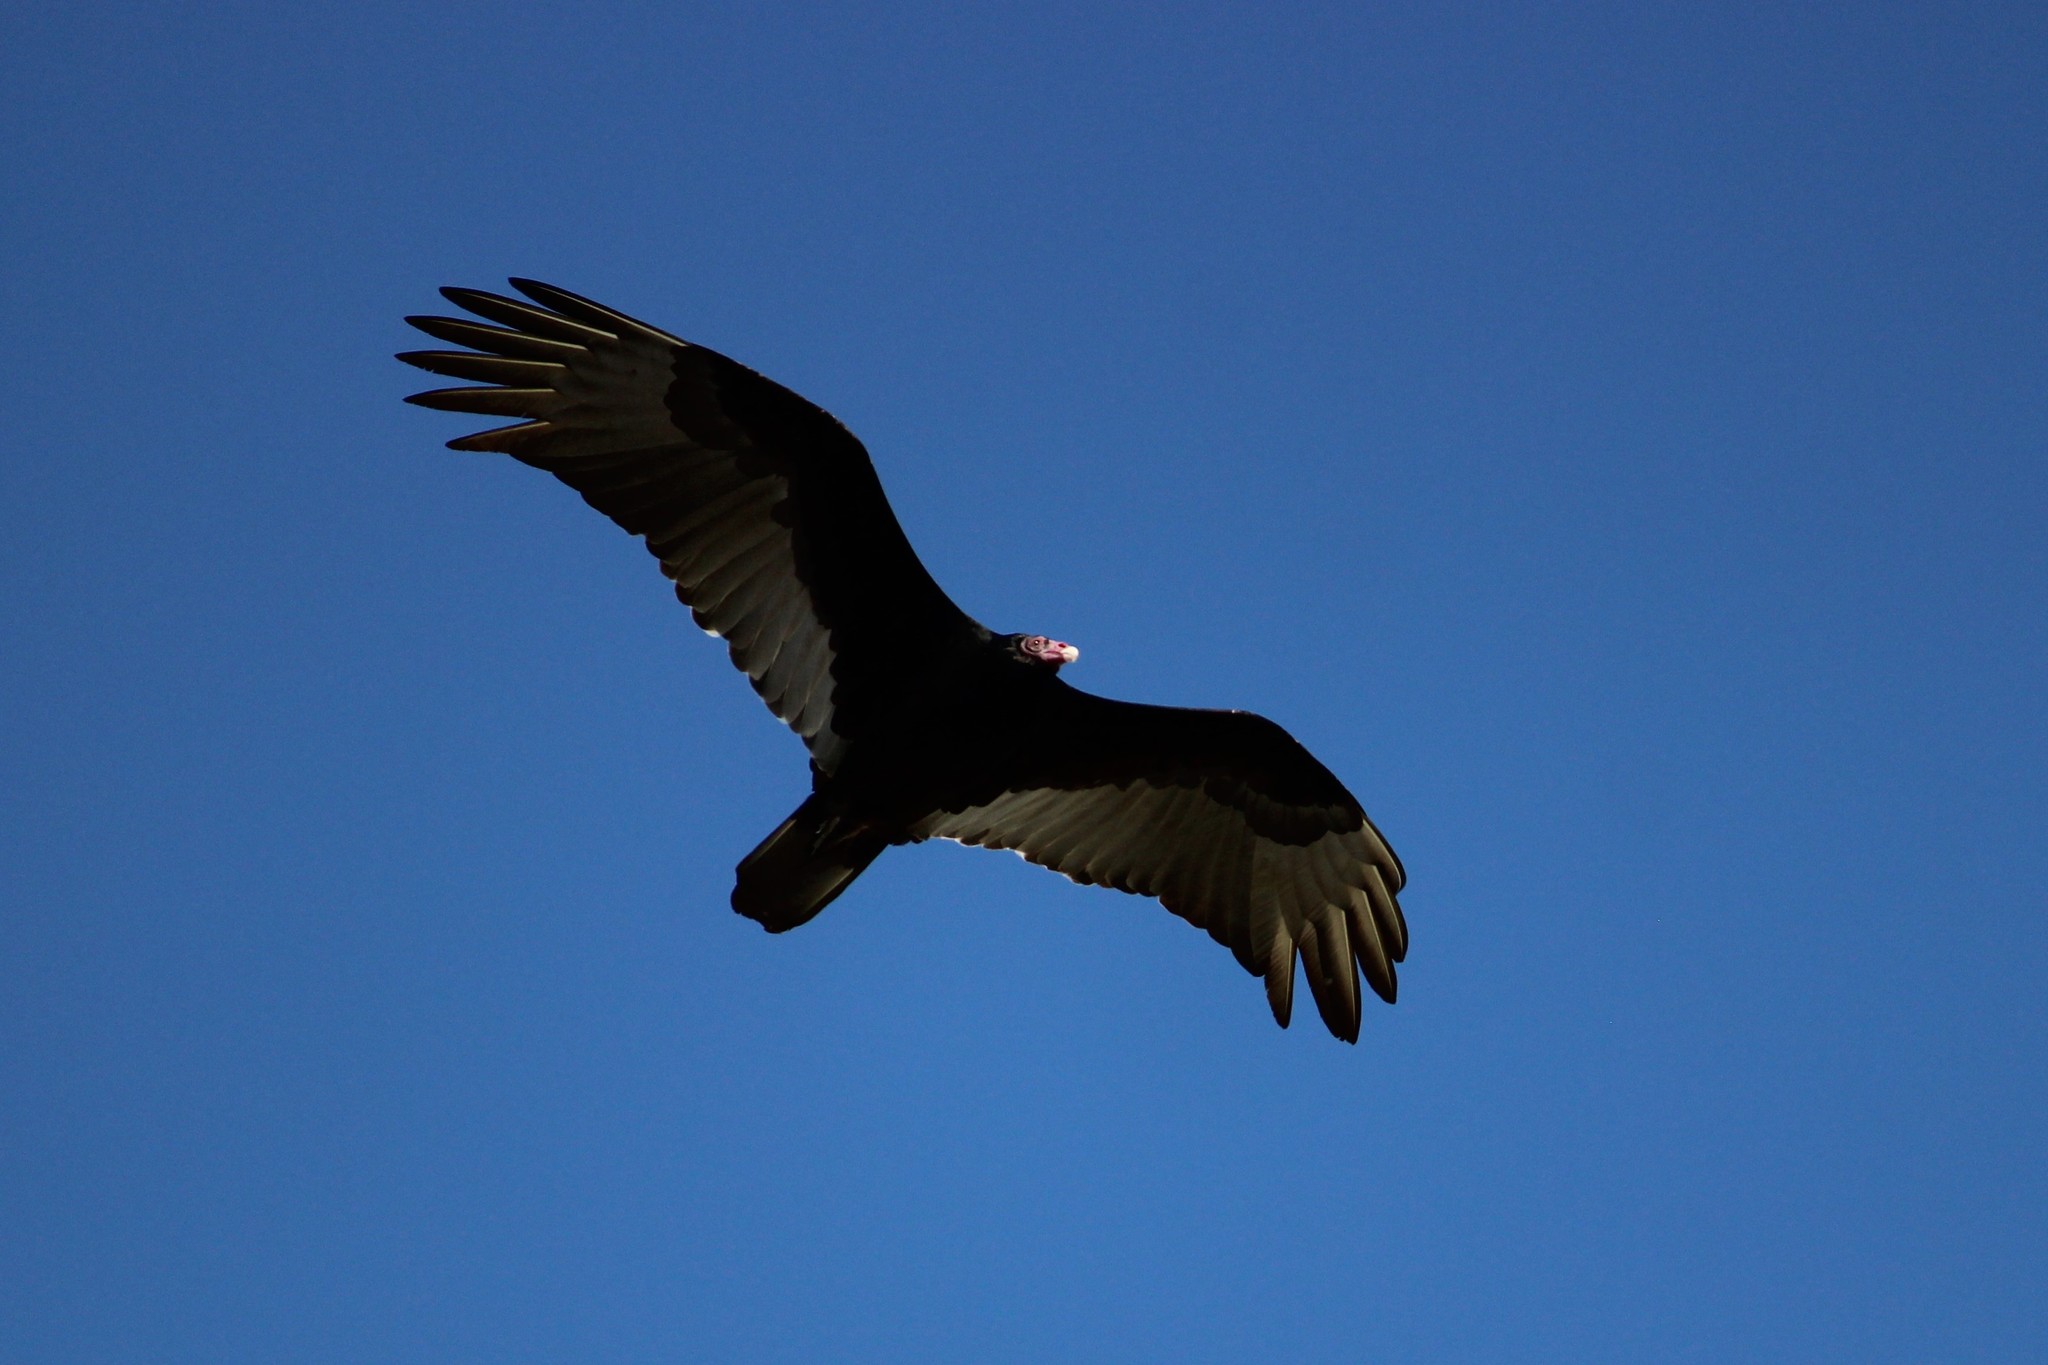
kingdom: Animalia
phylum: Chordata
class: Aves
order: Accipitriformes
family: Cathartidae
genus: Cathartes
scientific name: Cathartes aura
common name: Turkey vulture
